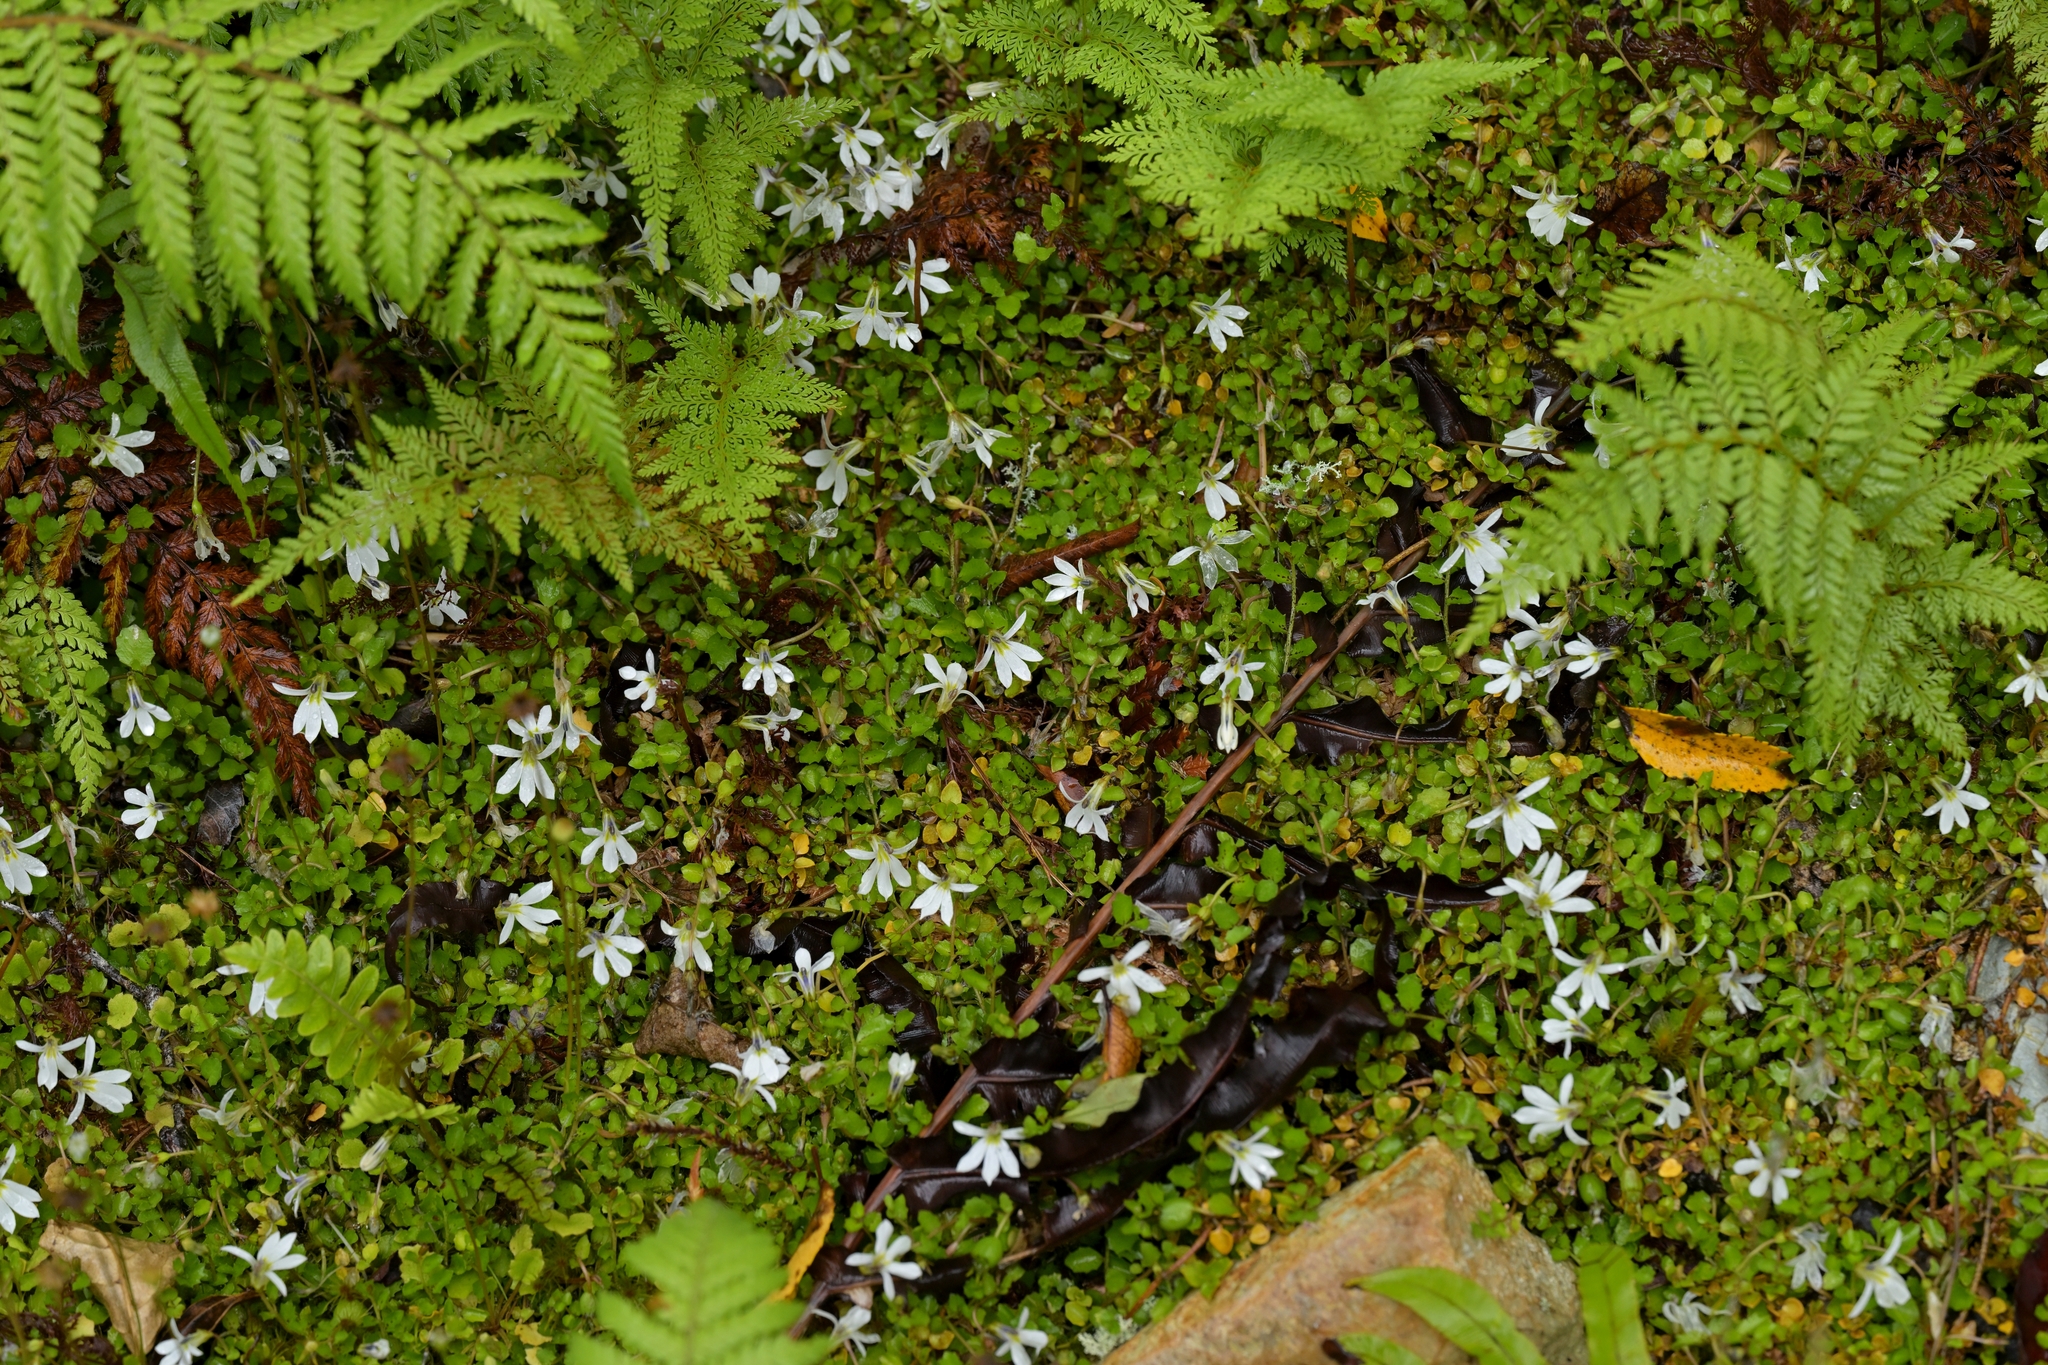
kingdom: Plantae
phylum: Tracheophyta
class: Magnoliopsida
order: Asterales
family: Campanulaceae
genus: Lobelia
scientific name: Lobelia angulata
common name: Lawn lobelia
